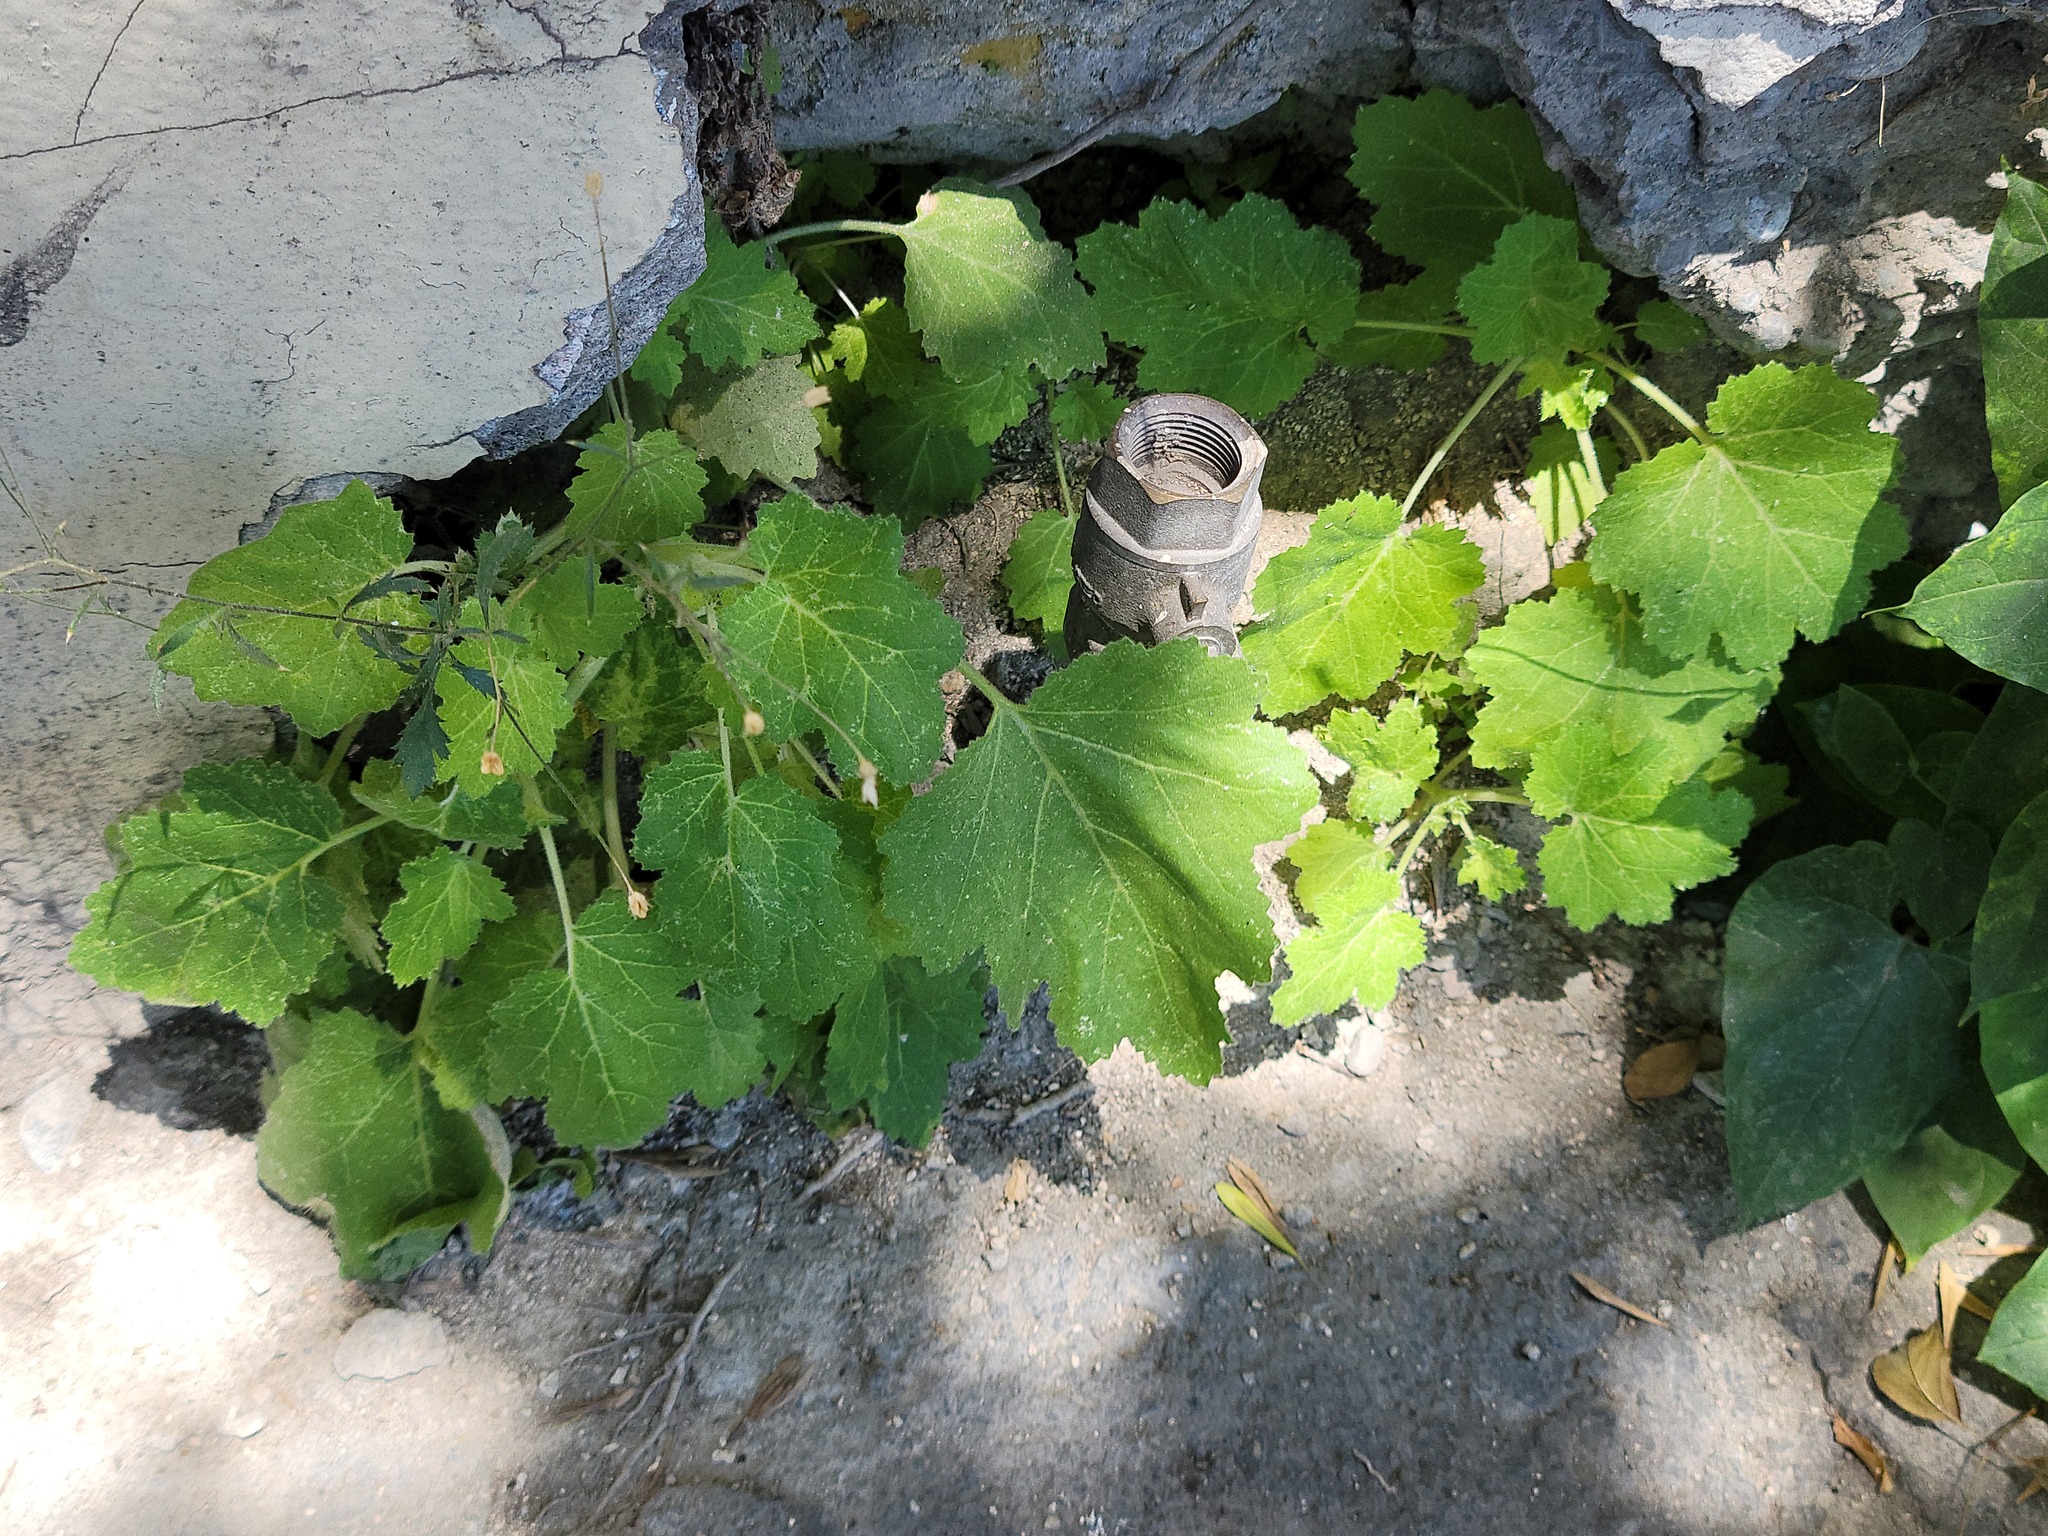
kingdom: Plantae
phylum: Tracheophyta
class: Magnoliopsida
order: Cornales
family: Loasaceae
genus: Eucnide
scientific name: Eucnide lobata
